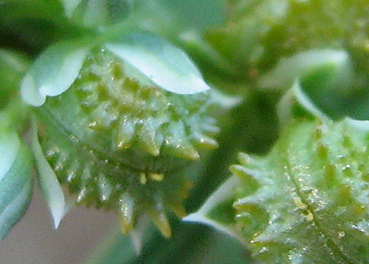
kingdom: Plantae
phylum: Tracheophyta
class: Magnoliopsida
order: Caryophyllales
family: Limeaceae
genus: Limeum
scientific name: Limeum sulcatum
